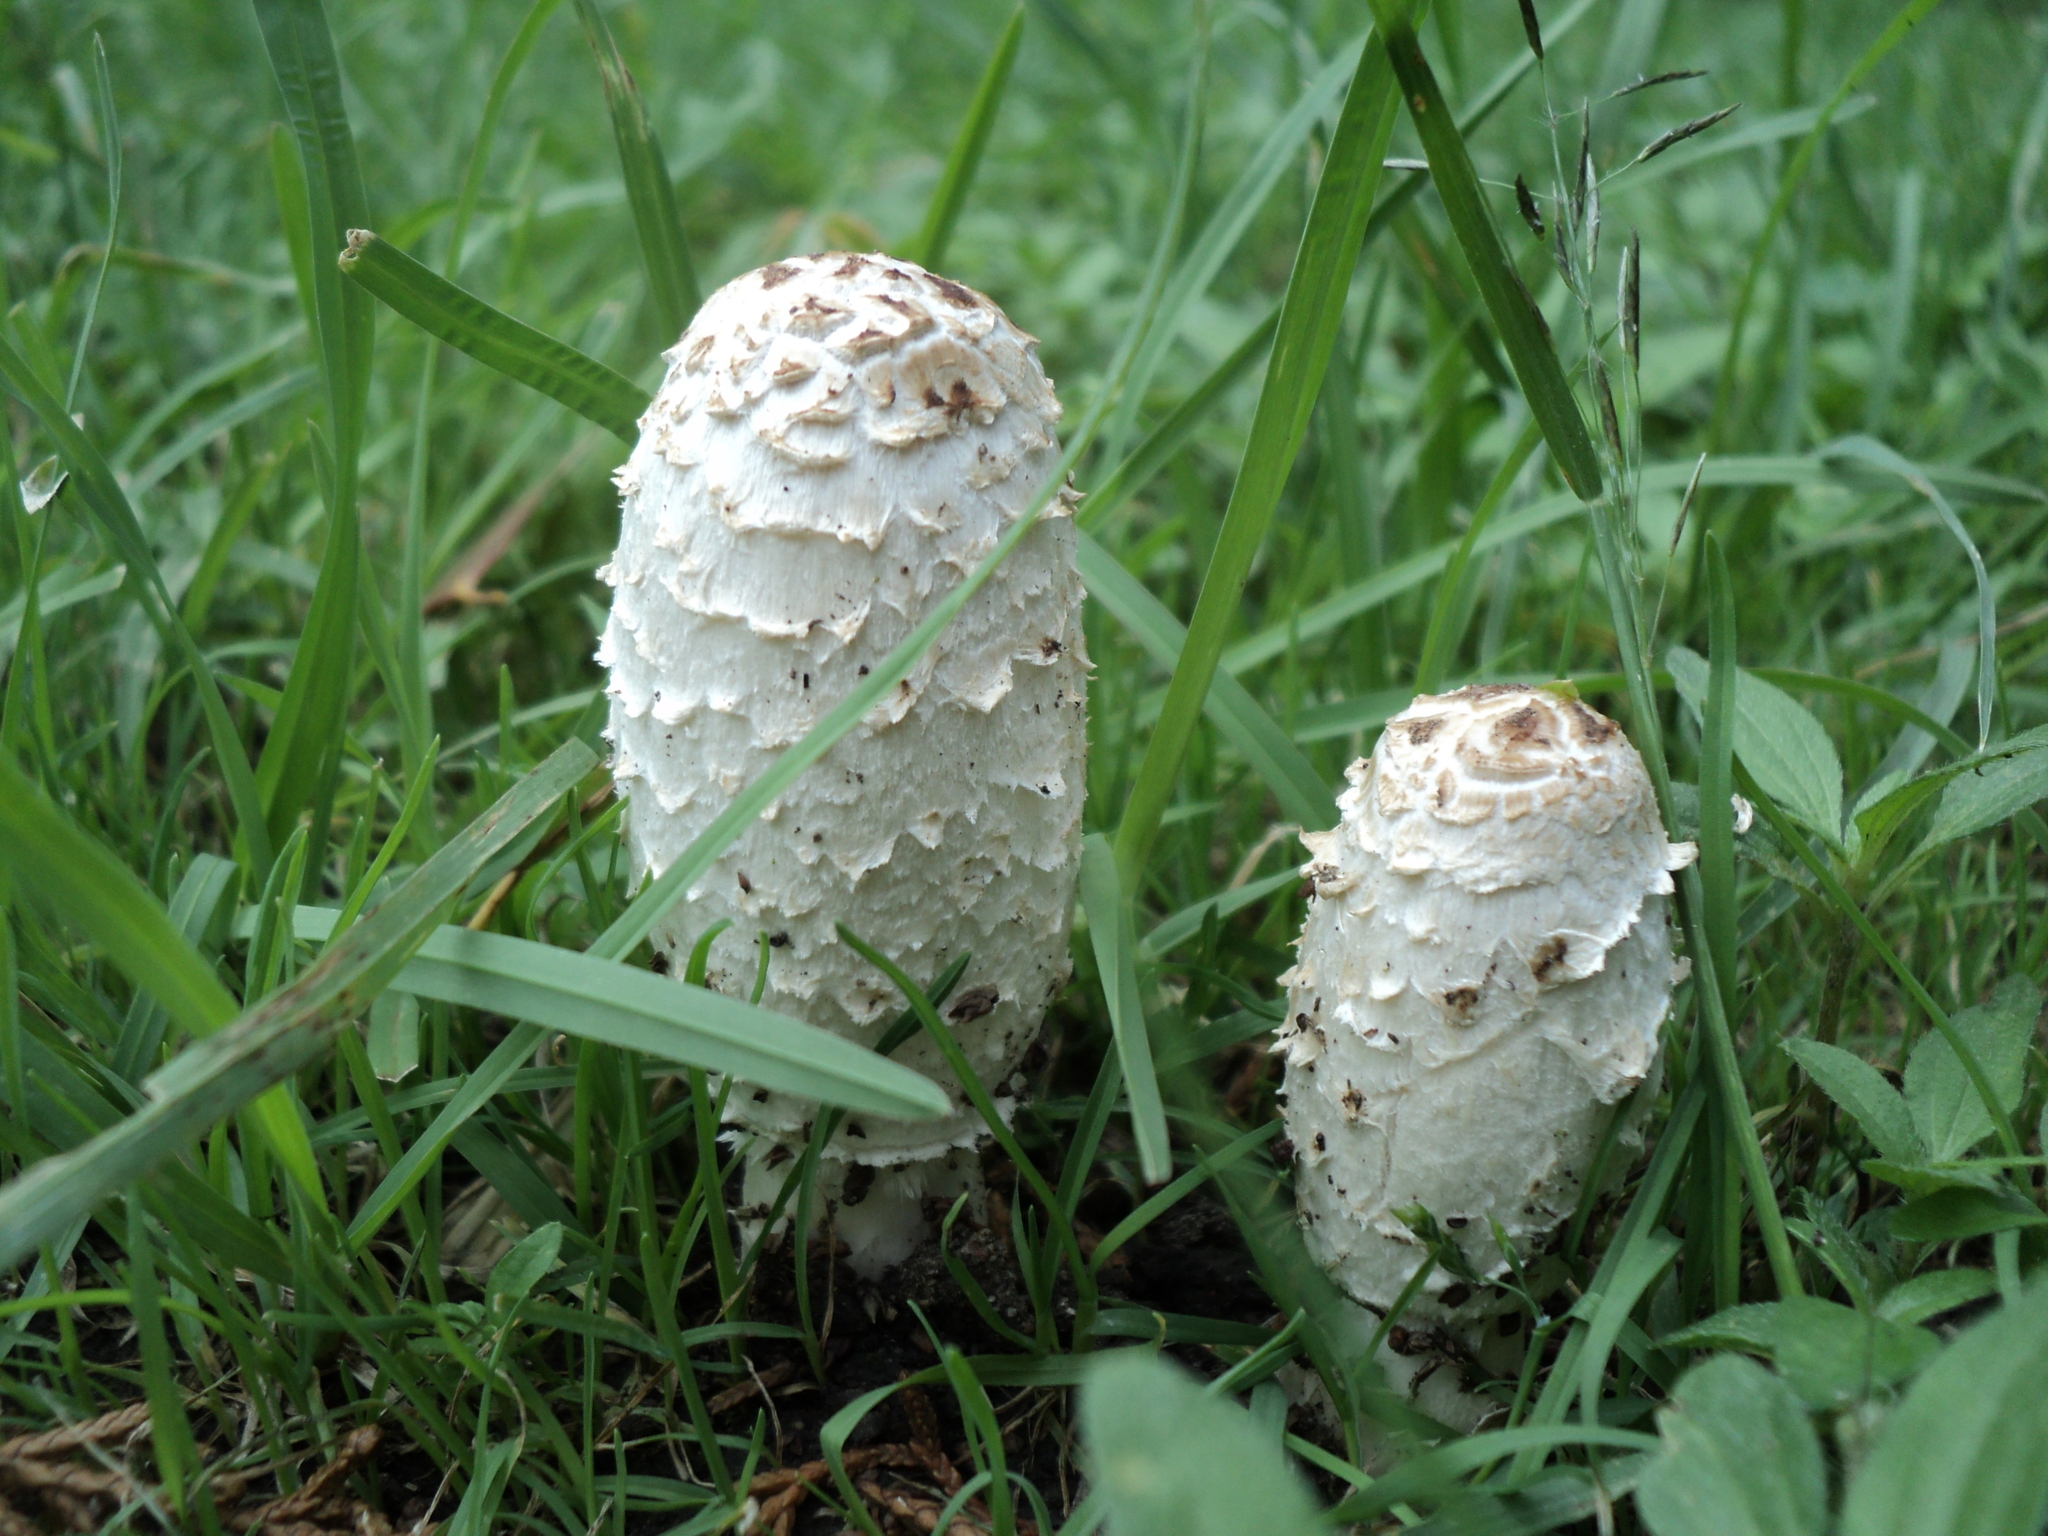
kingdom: Fungi
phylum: Basidiomycota
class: Agaricomycetes
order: Agaricales
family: Agaricaceae
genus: Coprinus
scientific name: Coprinus comatus
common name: Lawyer's wig
